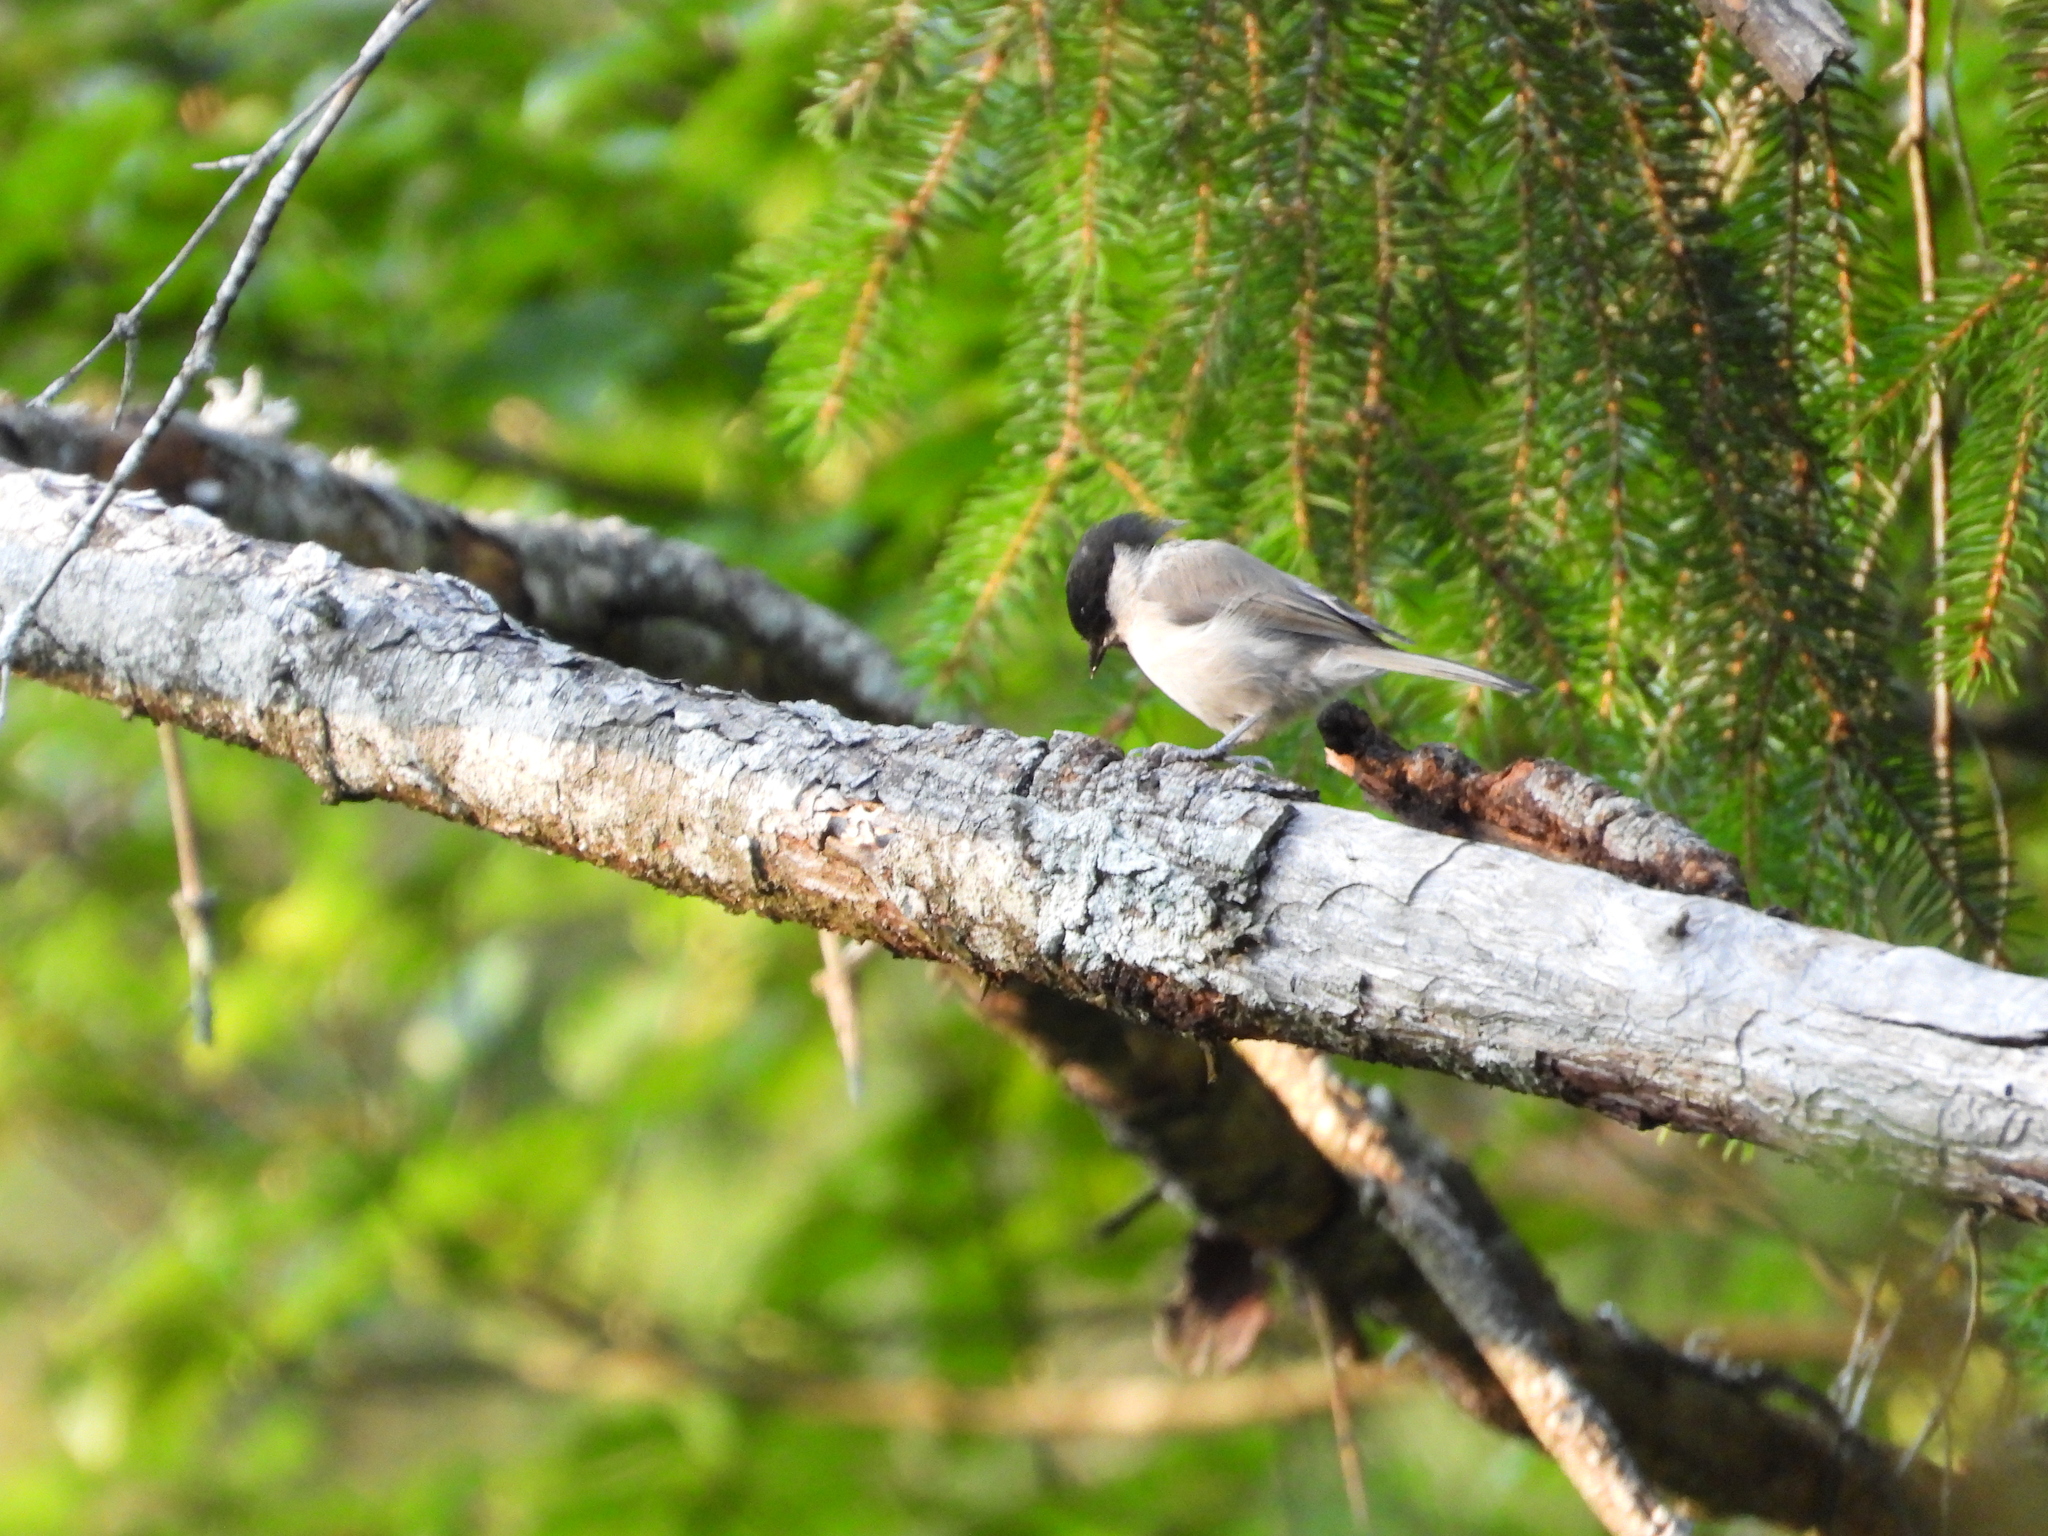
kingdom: Animalia
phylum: Chordata
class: Aves
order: Passeriformes
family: Paridae
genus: Poecile
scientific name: Poecile palustris
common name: Marsh tit
